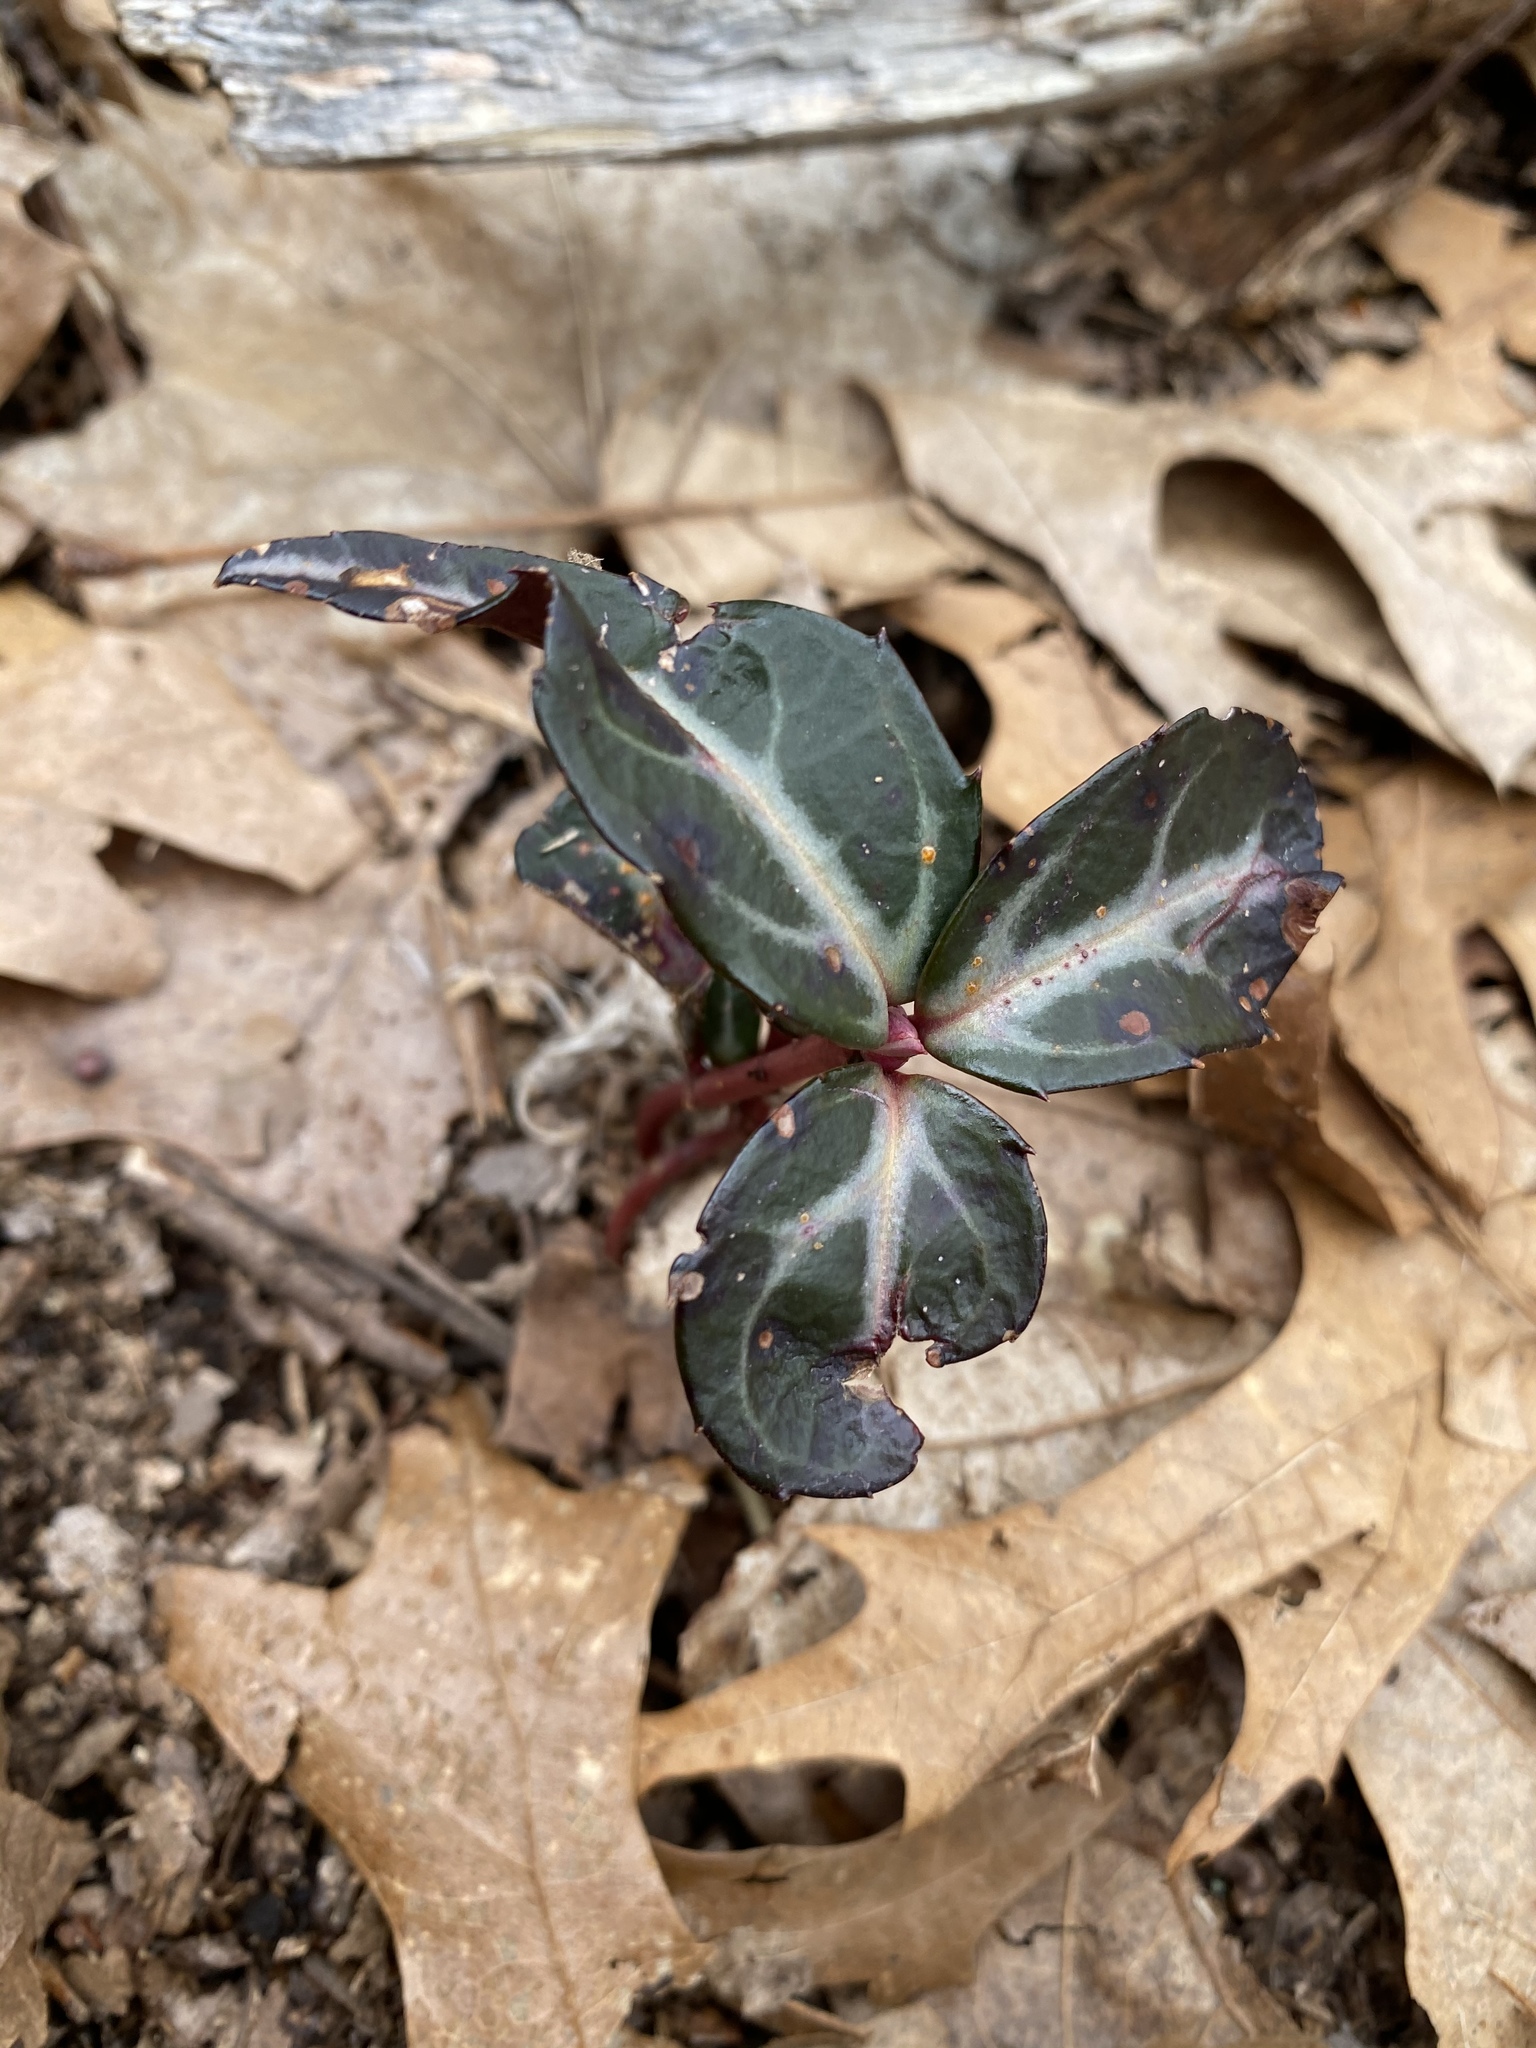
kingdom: Plantae
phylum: Tracheophyta
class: Magnoliopsida
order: Ericales
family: Ericaceae
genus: Chimaphila
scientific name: Chimaphila maculata
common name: Spotted pipsissewa
